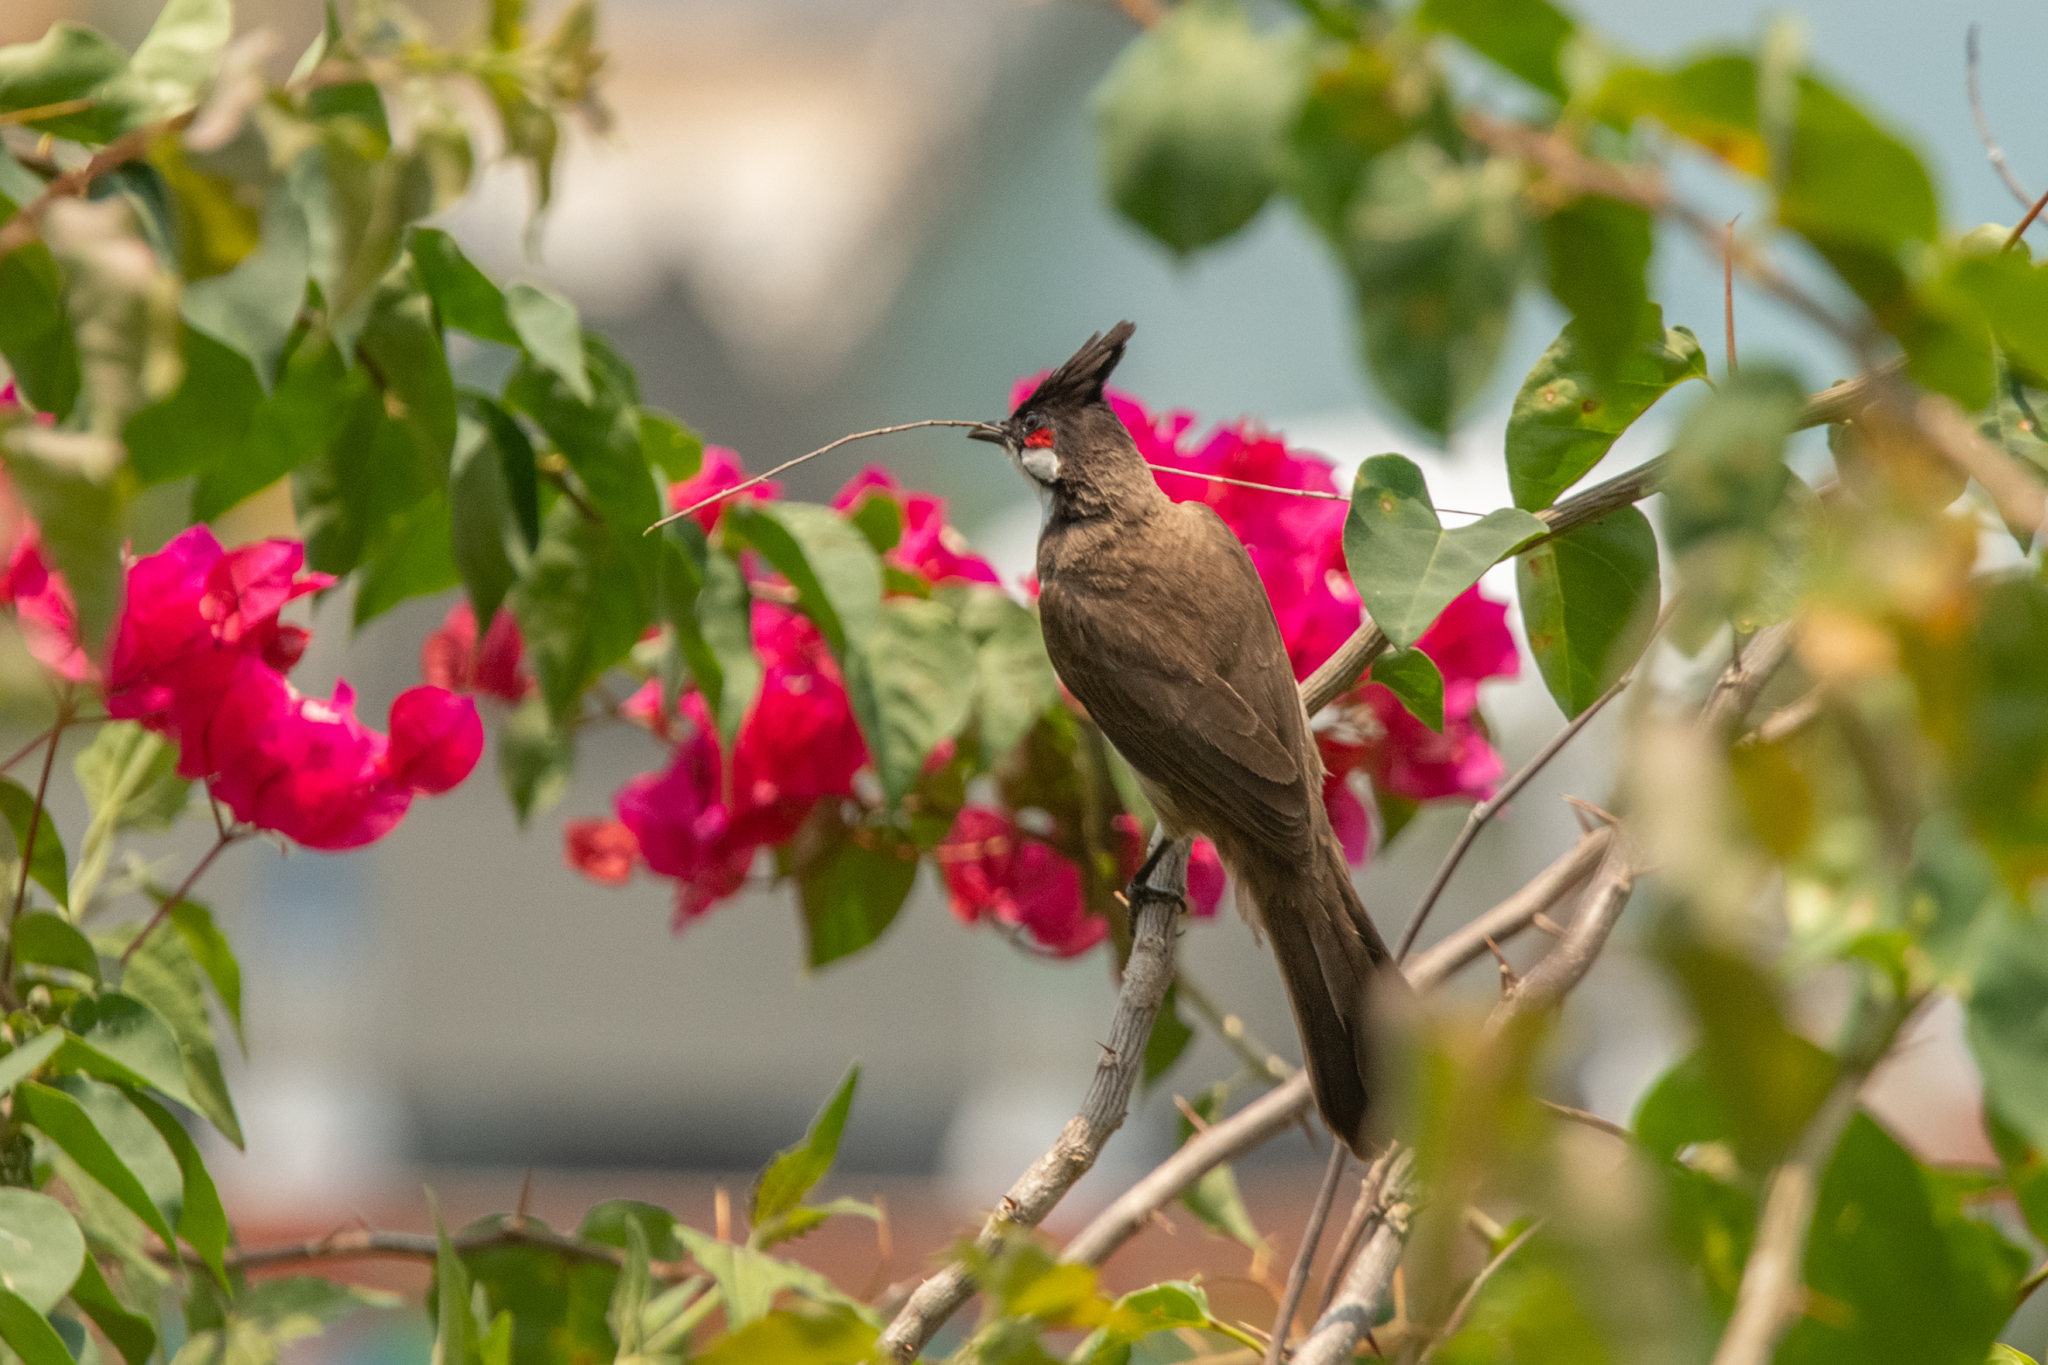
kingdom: Animalia
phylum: Chordata
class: Aves
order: Passeriformes
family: Pycnonotidae
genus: Pycnonotus
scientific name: Pycnonotus jocosus
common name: Red-whiskered bulbul
